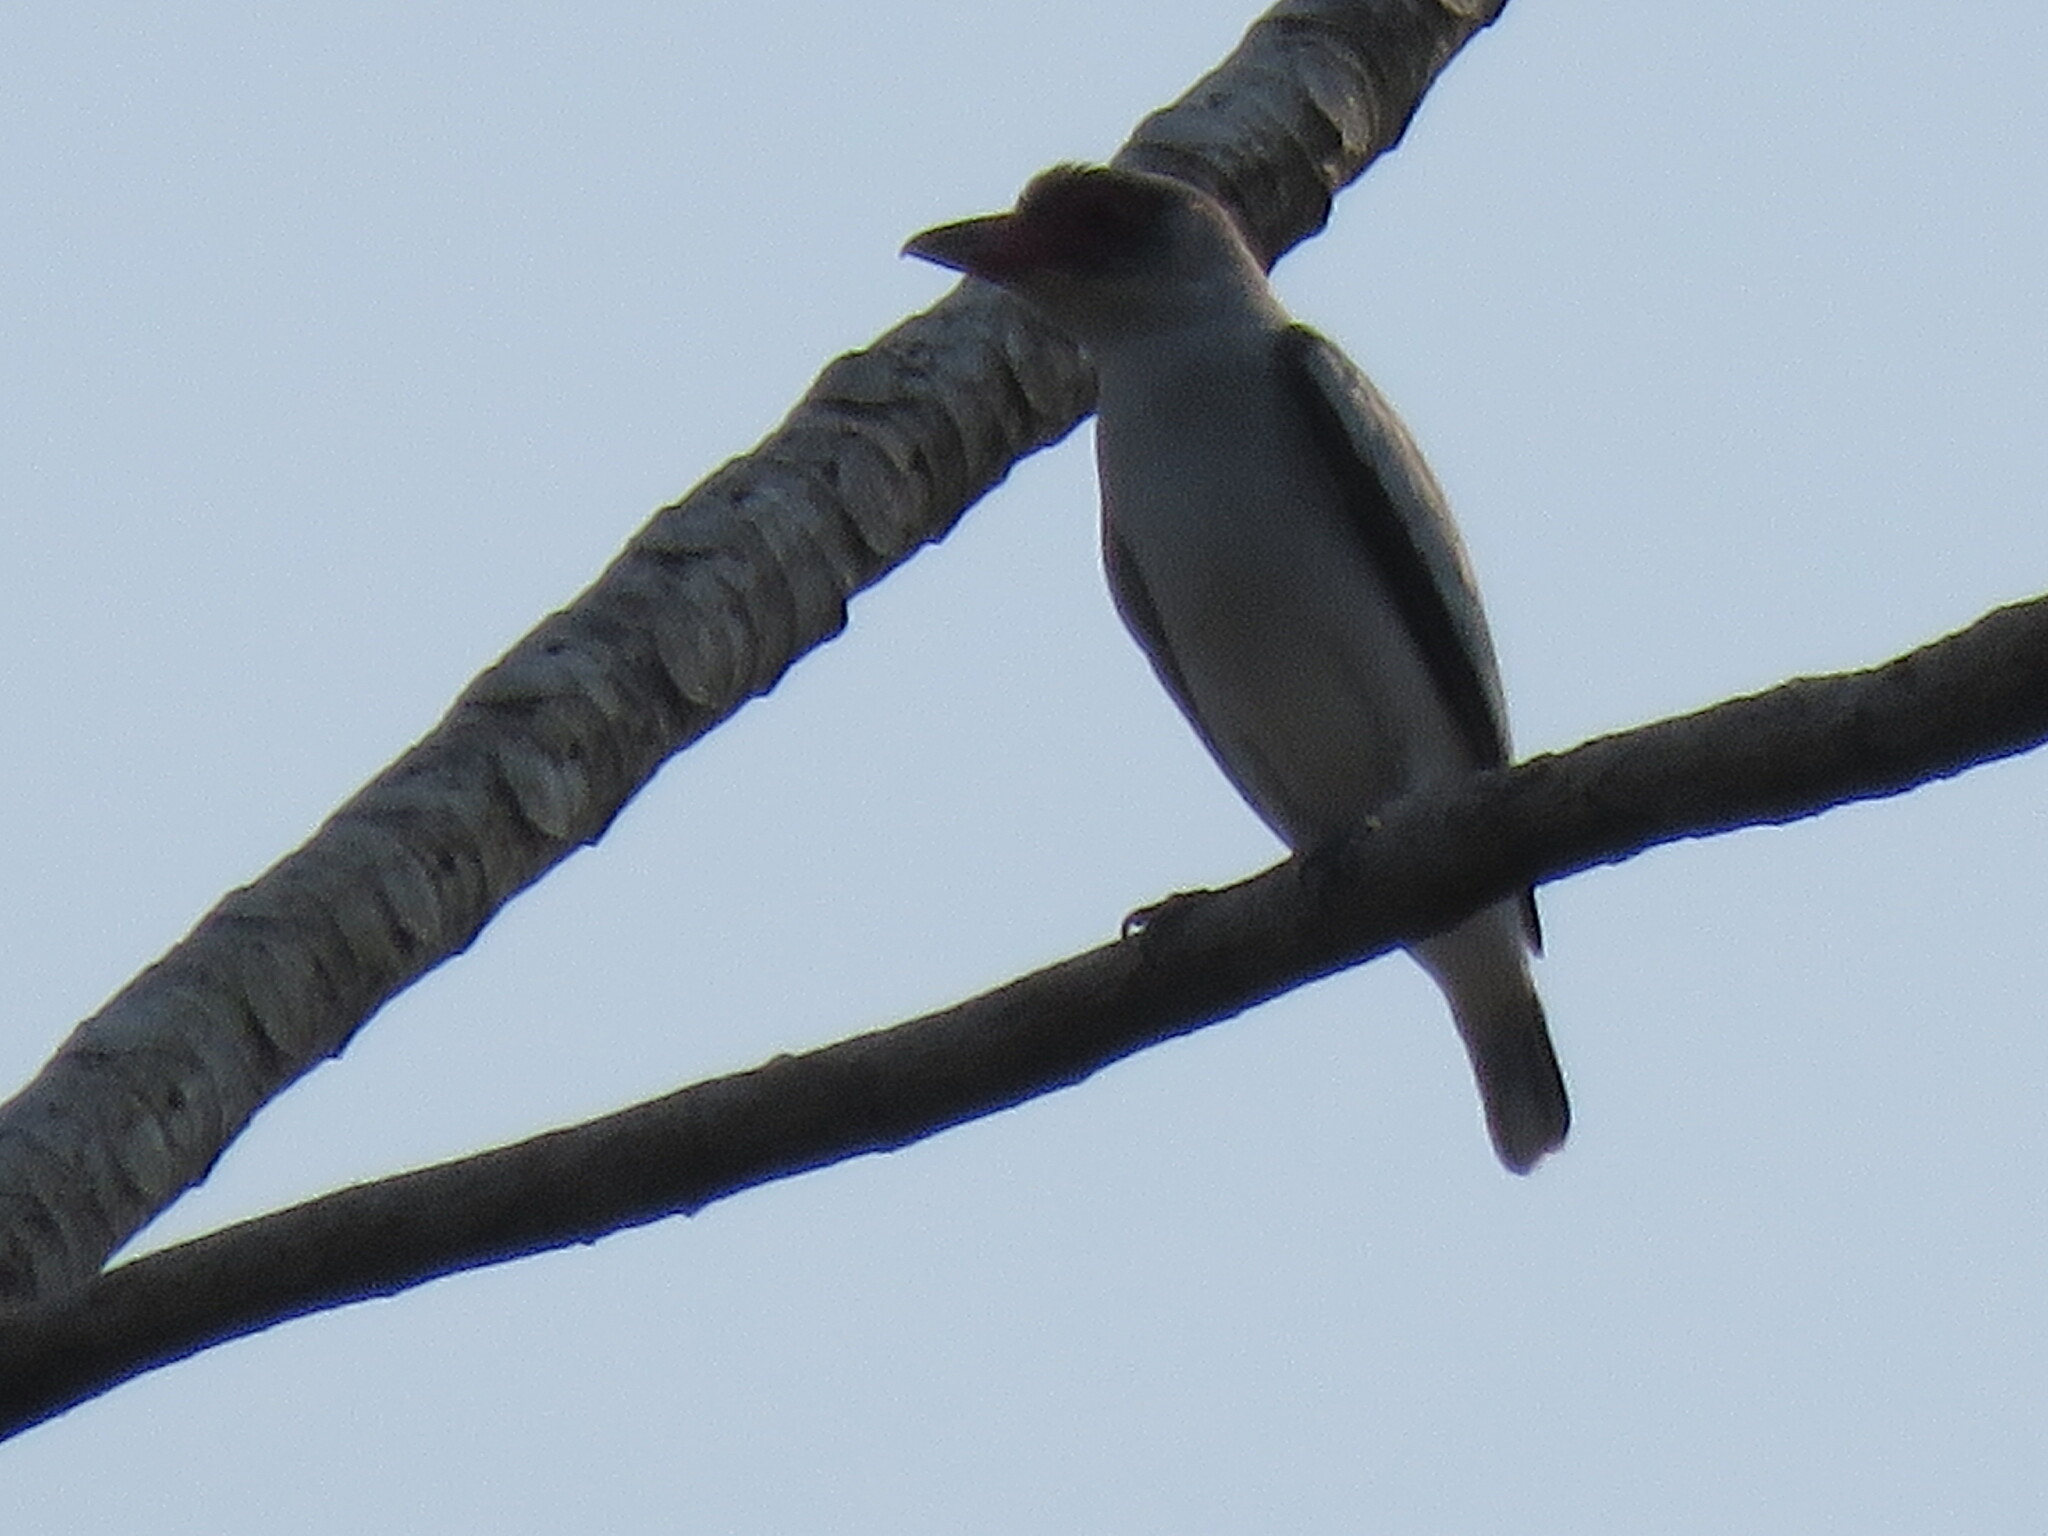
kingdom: Animalia
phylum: Chordata
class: Aves
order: Passeriformes
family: Cotingidae
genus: Tityra
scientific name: Tityra semifasciata
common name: Masked tityra
